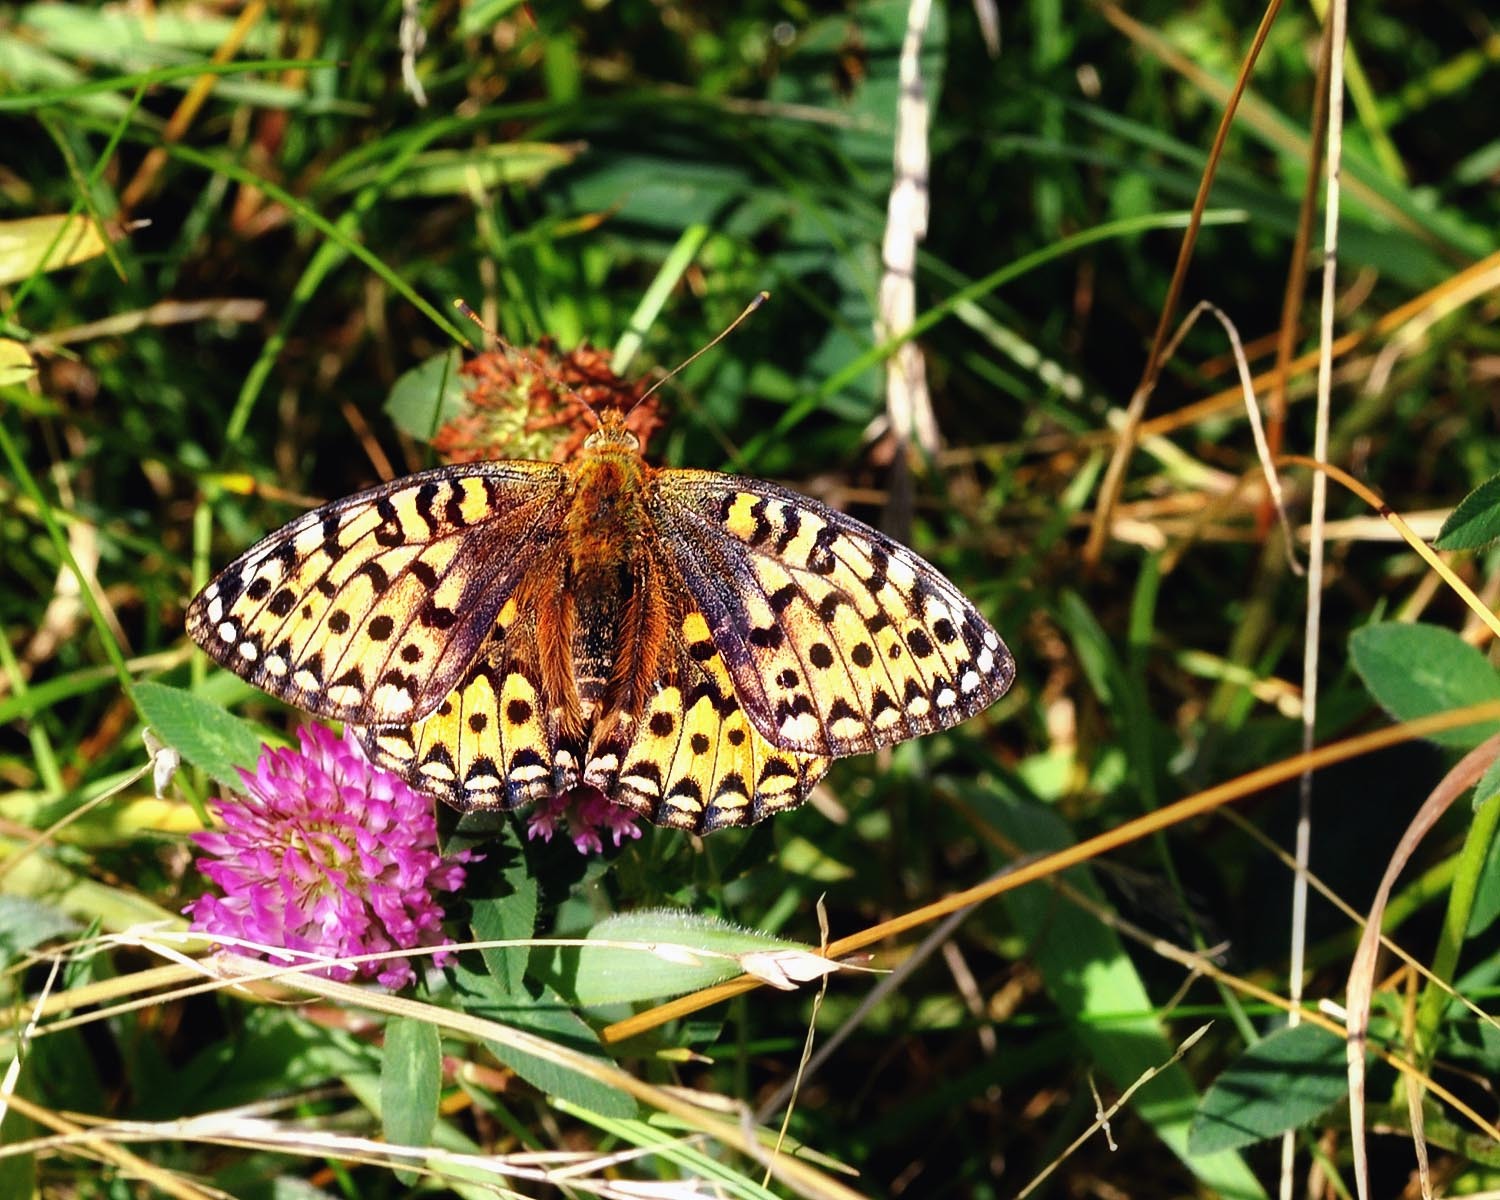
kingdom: Animalia
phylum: Arthropoda
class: Insecta
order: Lepidoptera
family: Nymphalidae
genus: Speyeria
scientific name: Speyeria aglaja
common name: Dark green fritillary
